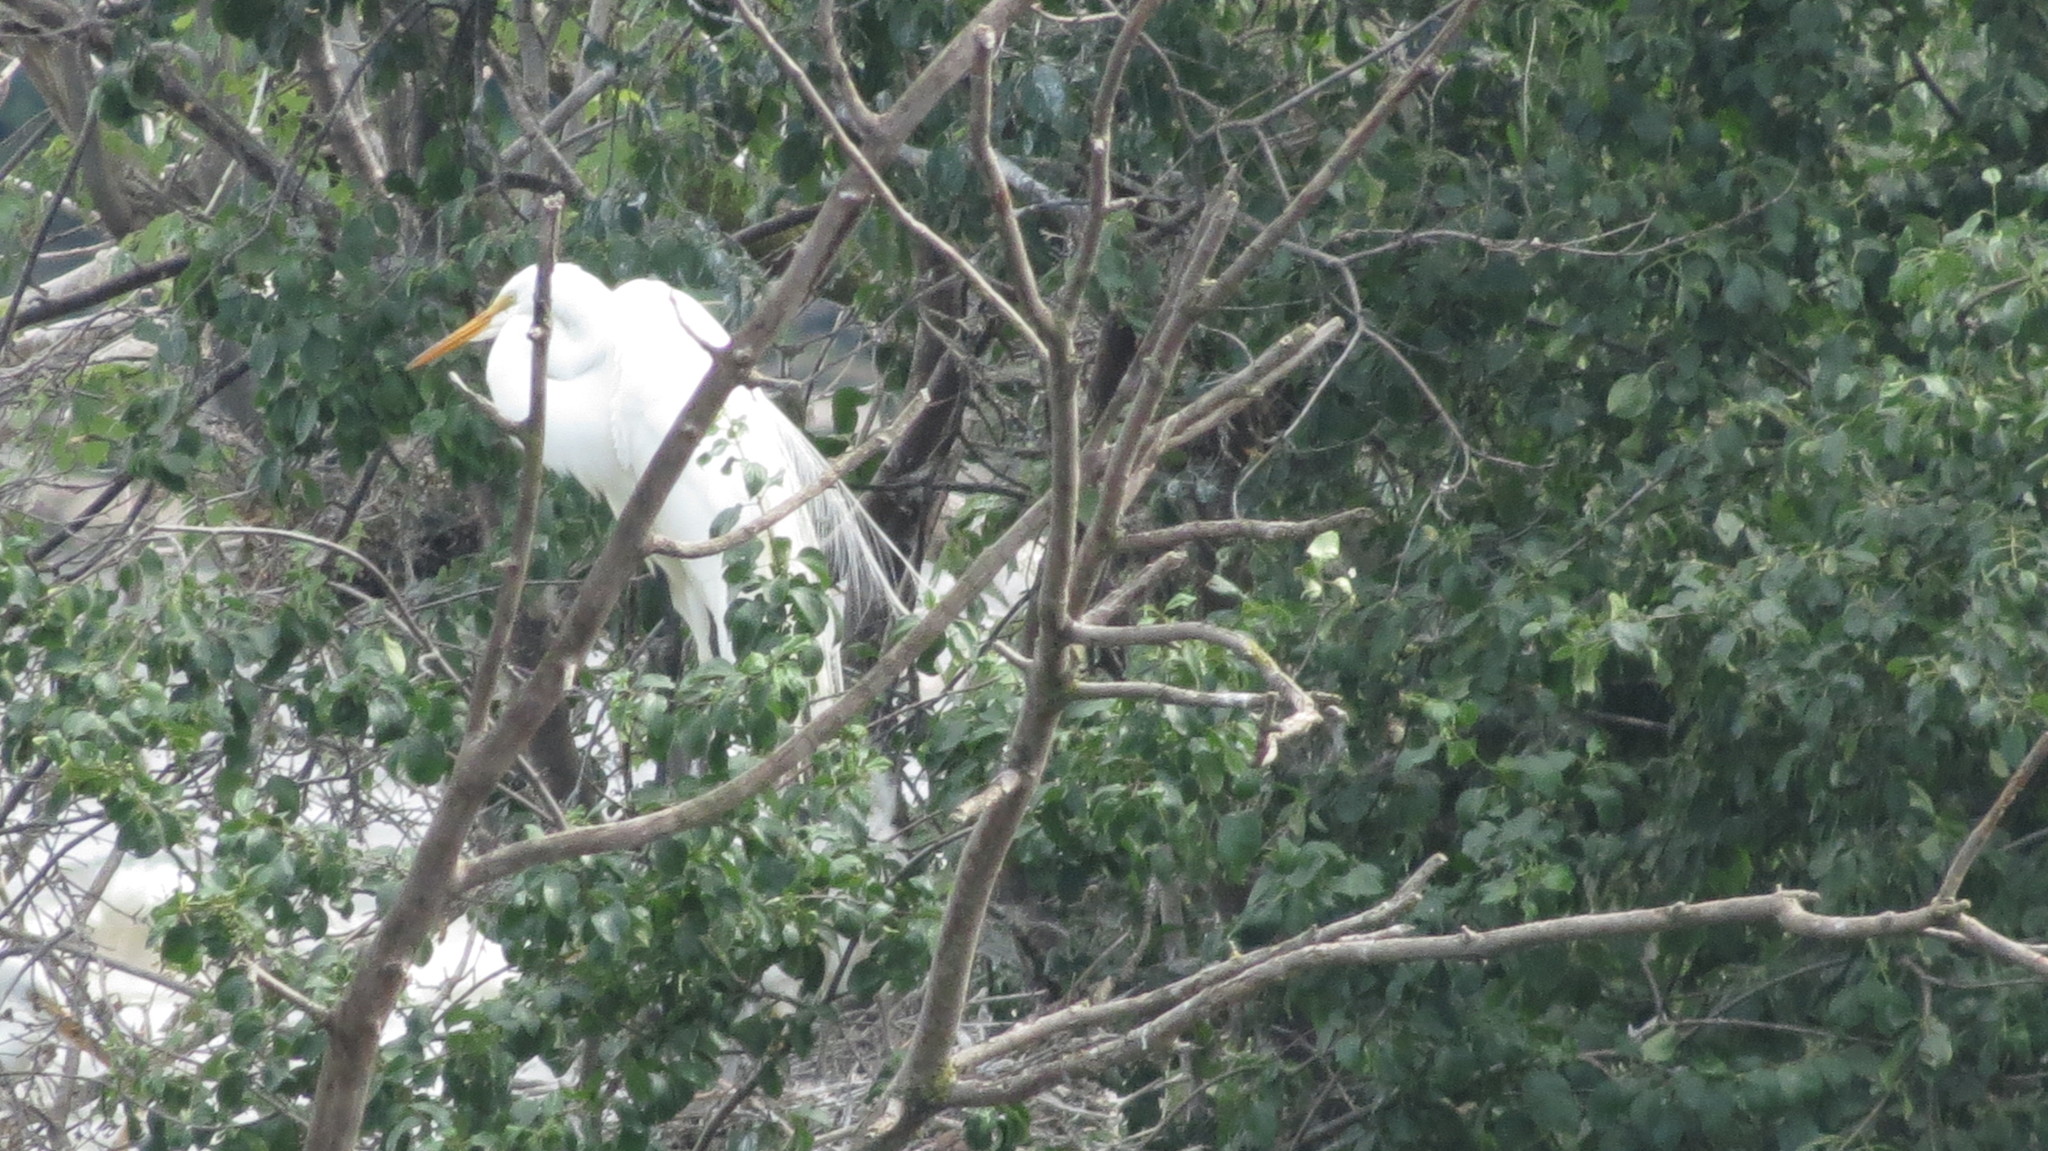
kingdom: Animalia
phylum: Chordata
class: Aves
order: Pelecaniformes
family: Ardeidae
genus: Ardea
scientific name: Ardea alba
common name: Great egret
